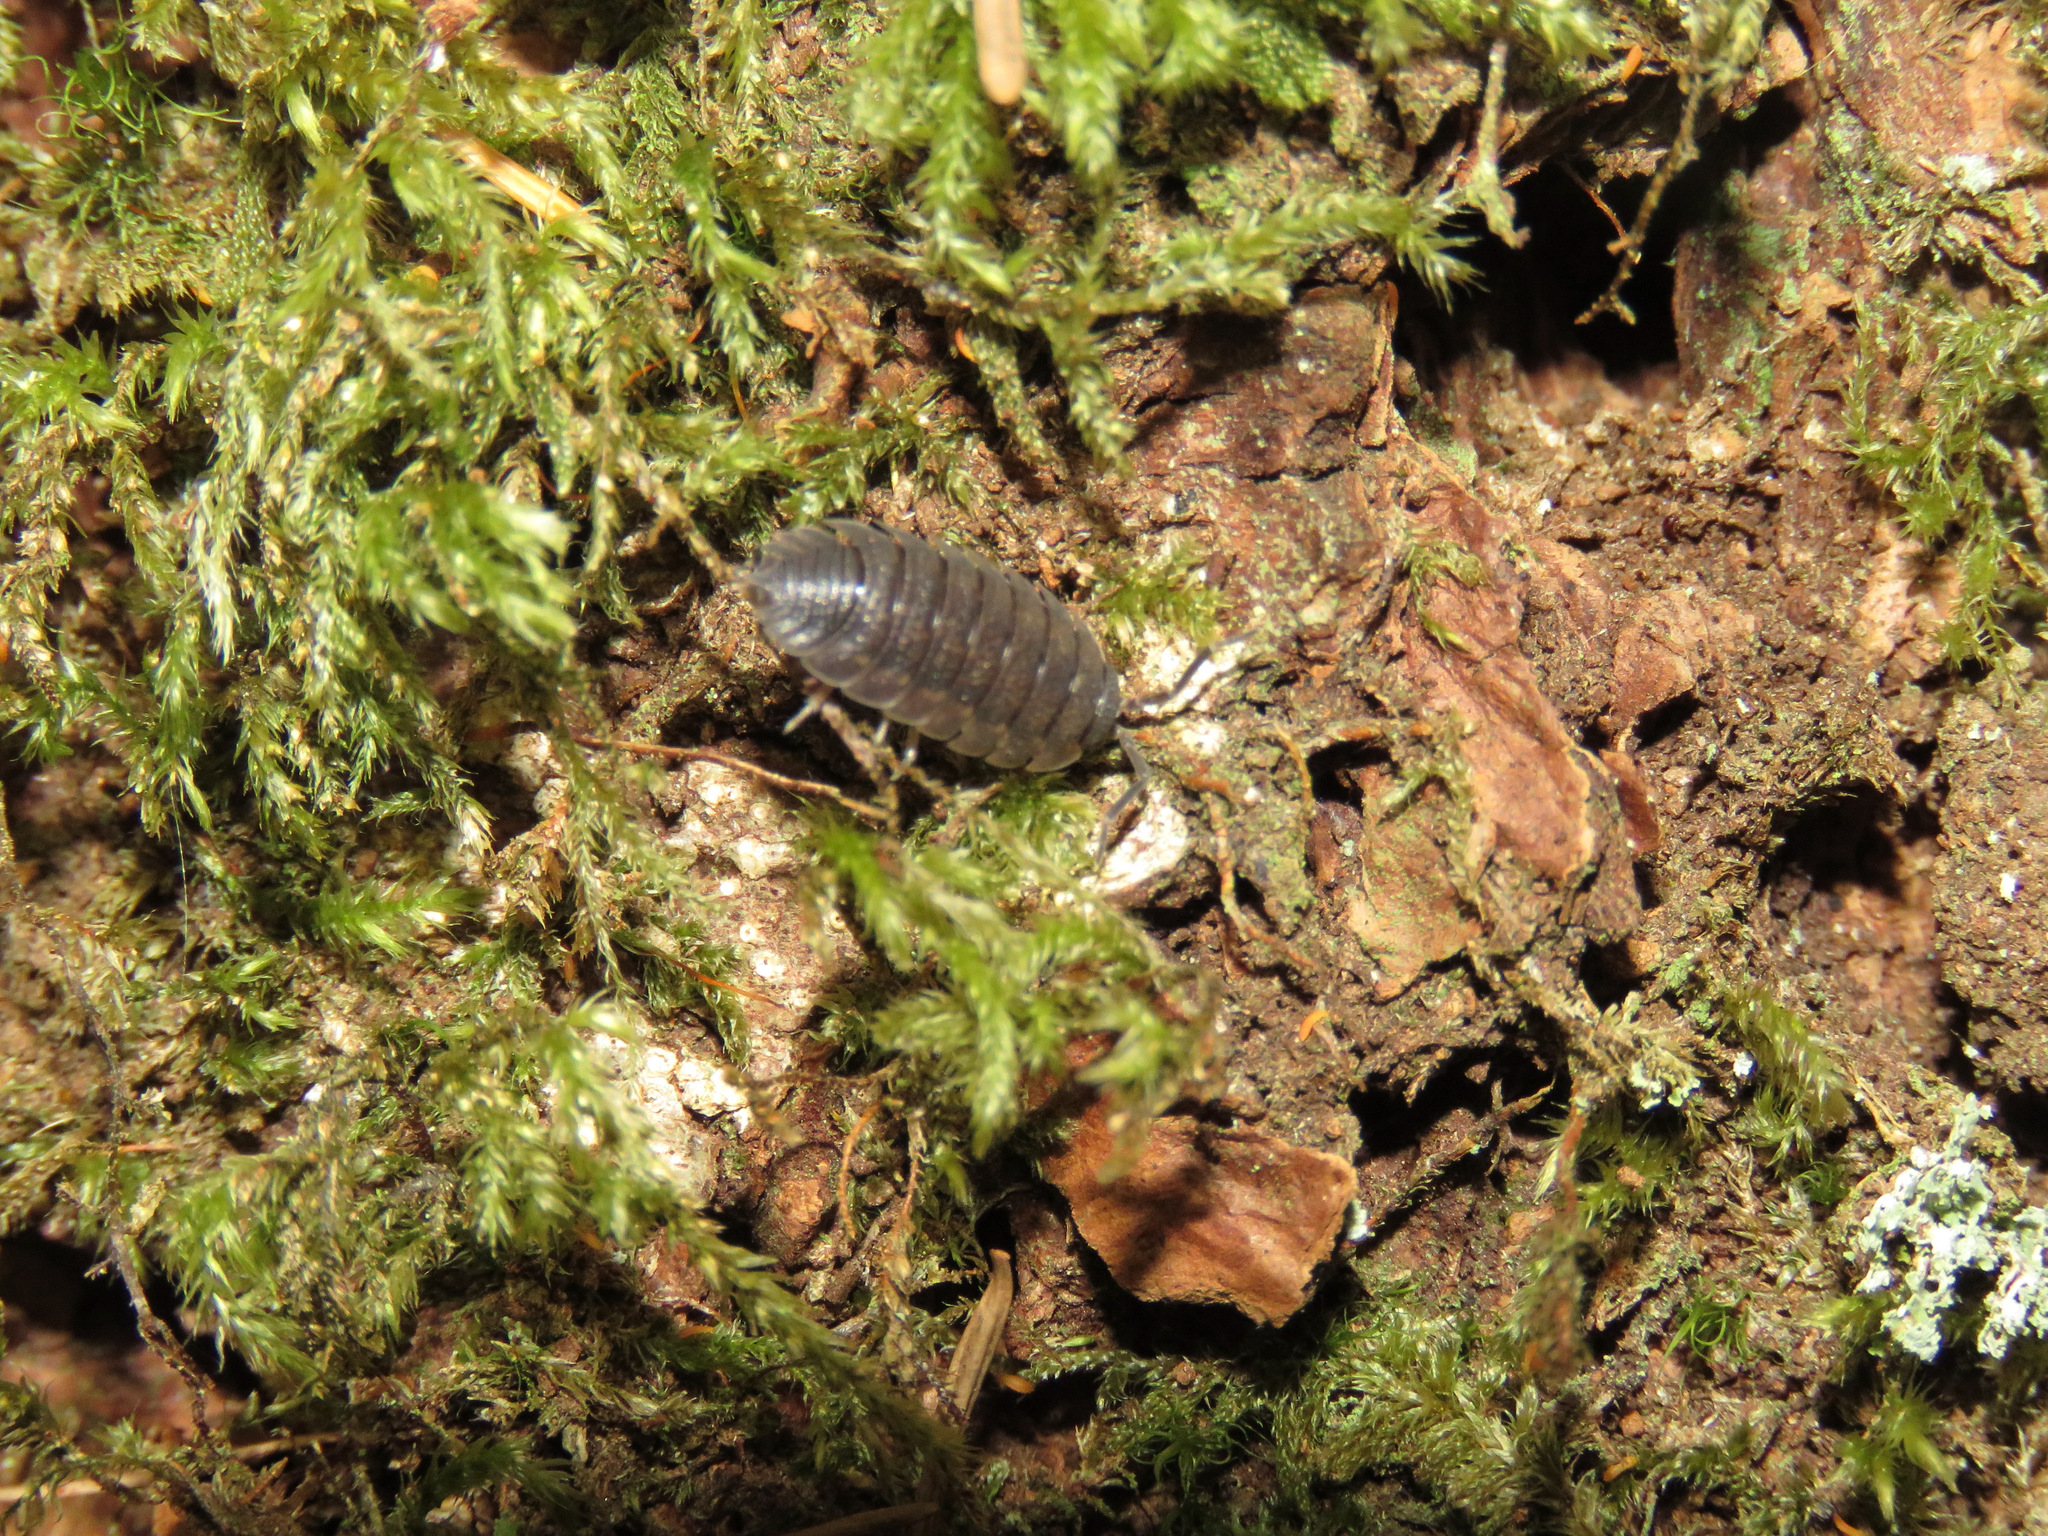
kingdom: Animalia
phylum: Arthropoda
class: Malacostraca
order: Isopoda
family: Porcellionidae
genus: Porcellio
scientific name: Porcellio scaber
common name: Common rough woodlouse
